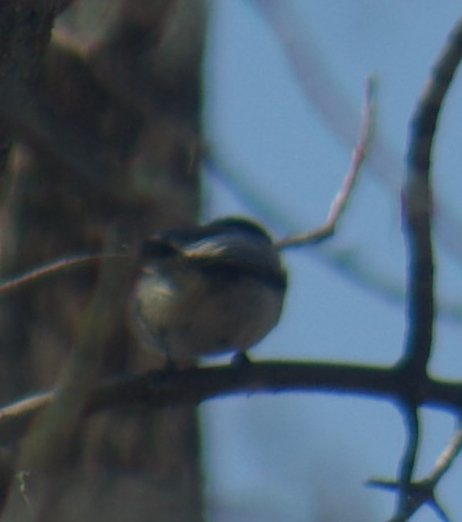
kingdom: Animalia
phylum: Chordata
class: Aves
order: Passeriformes
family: Paridae
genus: Poecile
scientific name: Poecile atricapillus
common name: Black-capped chickadee
